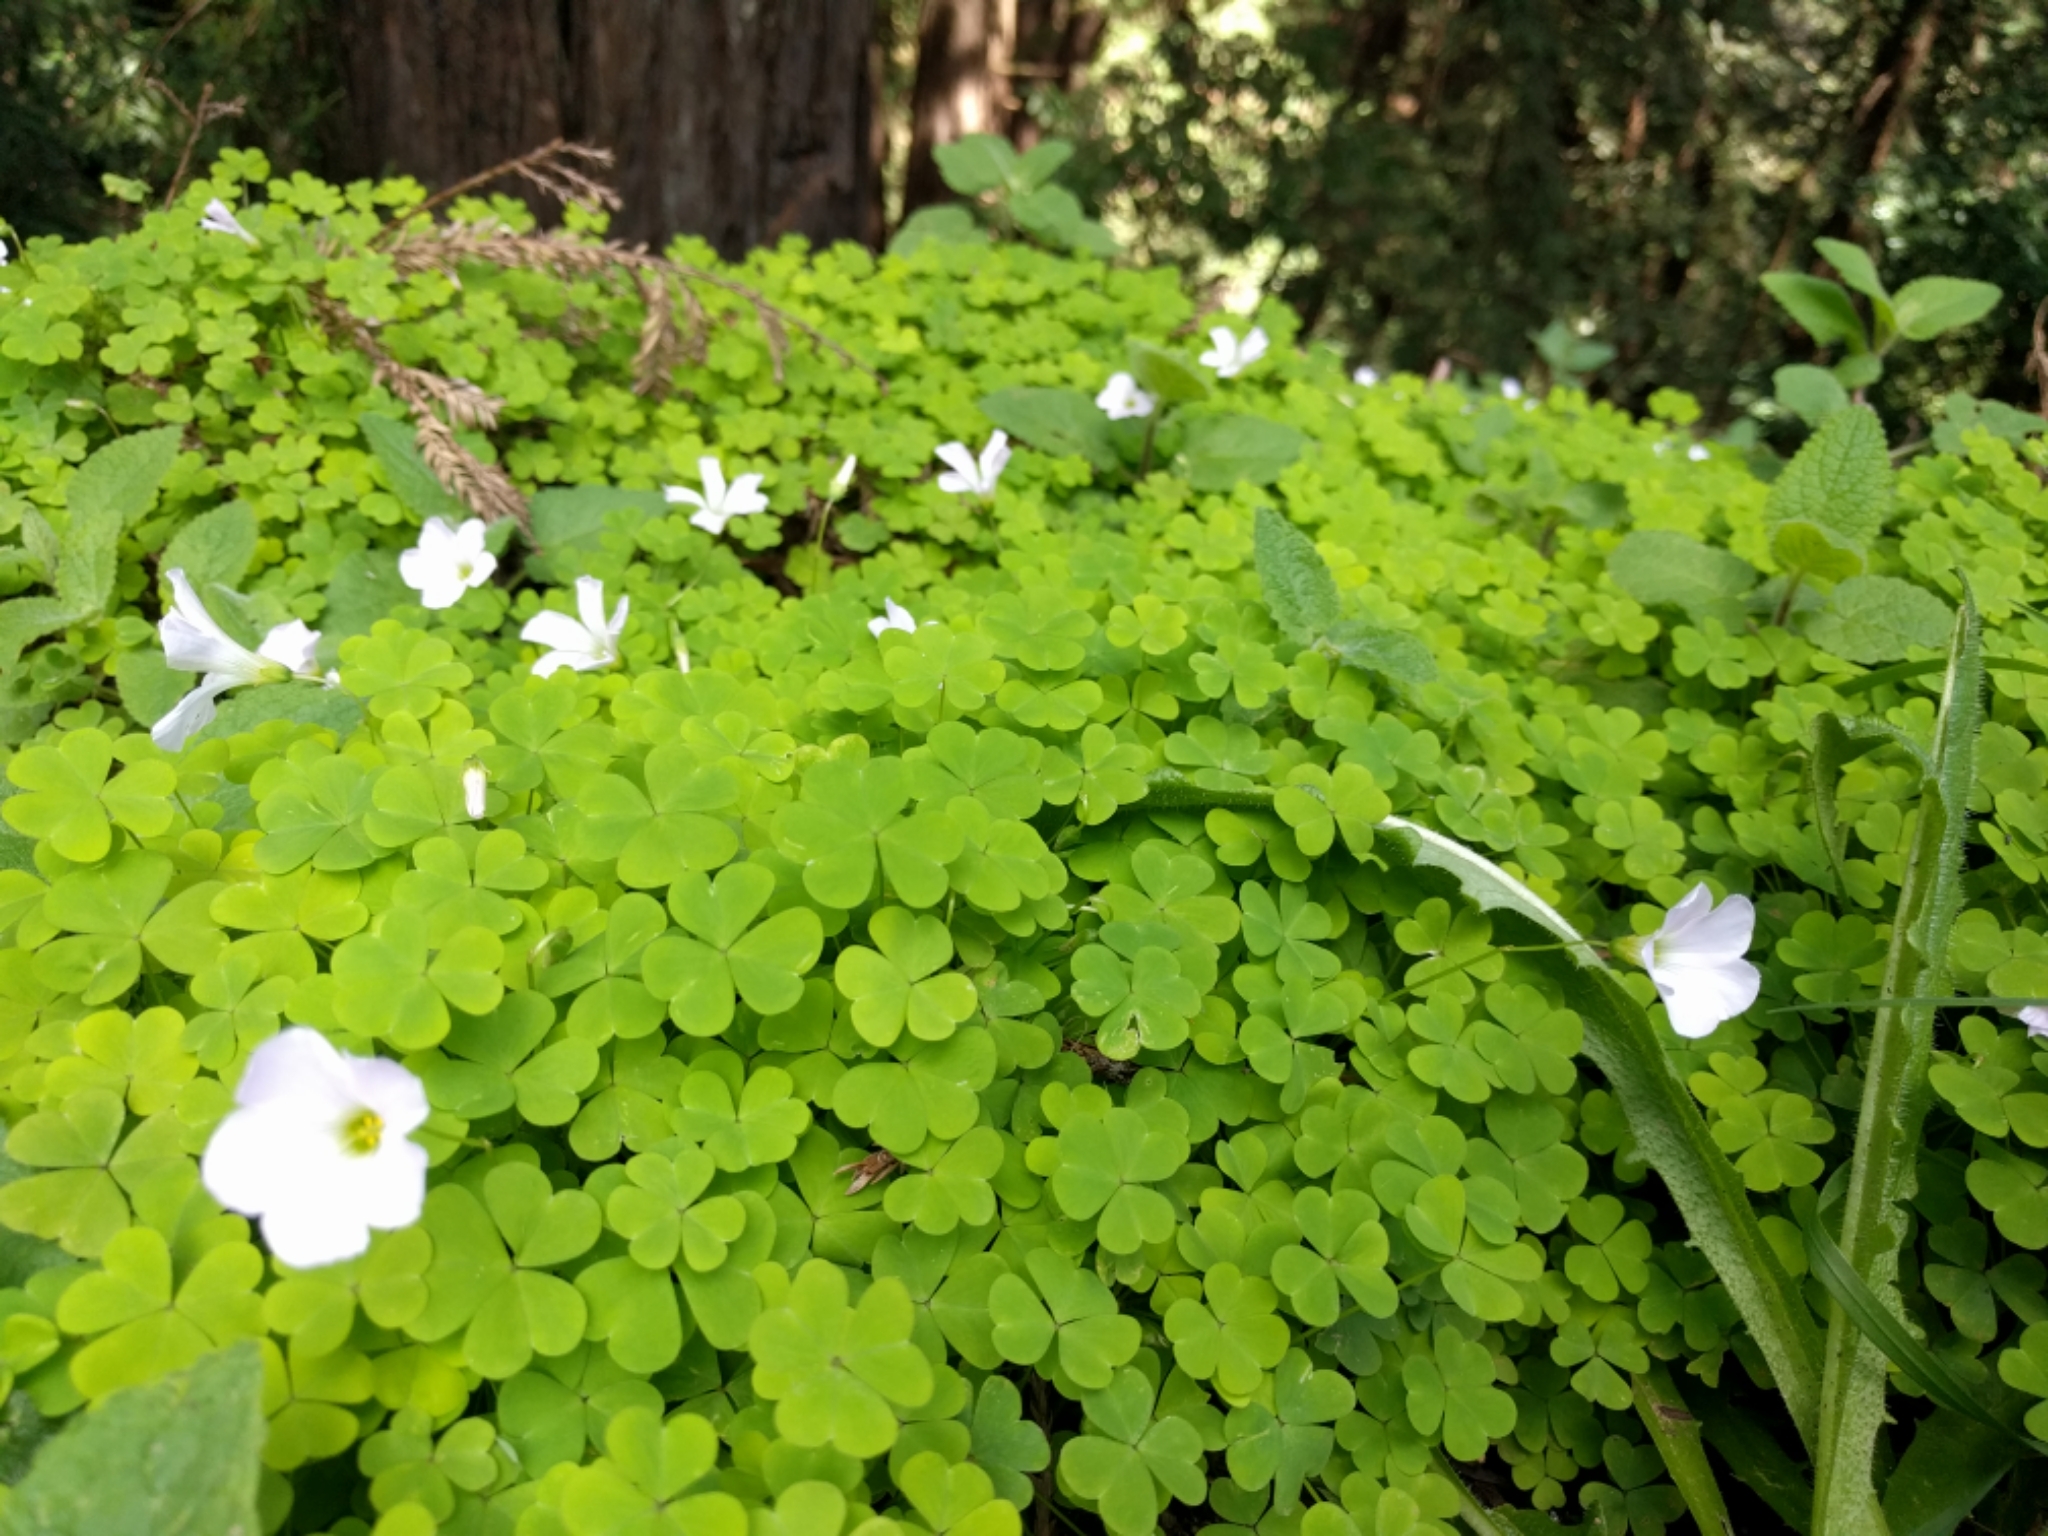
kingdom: Plantae
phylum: Tracheophyta
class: Magnoliopsida
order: Oxalidales
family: Oxalidaceae
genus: Oxalis
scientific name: Oxalis incarnata
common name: Pale pink-sorrel
